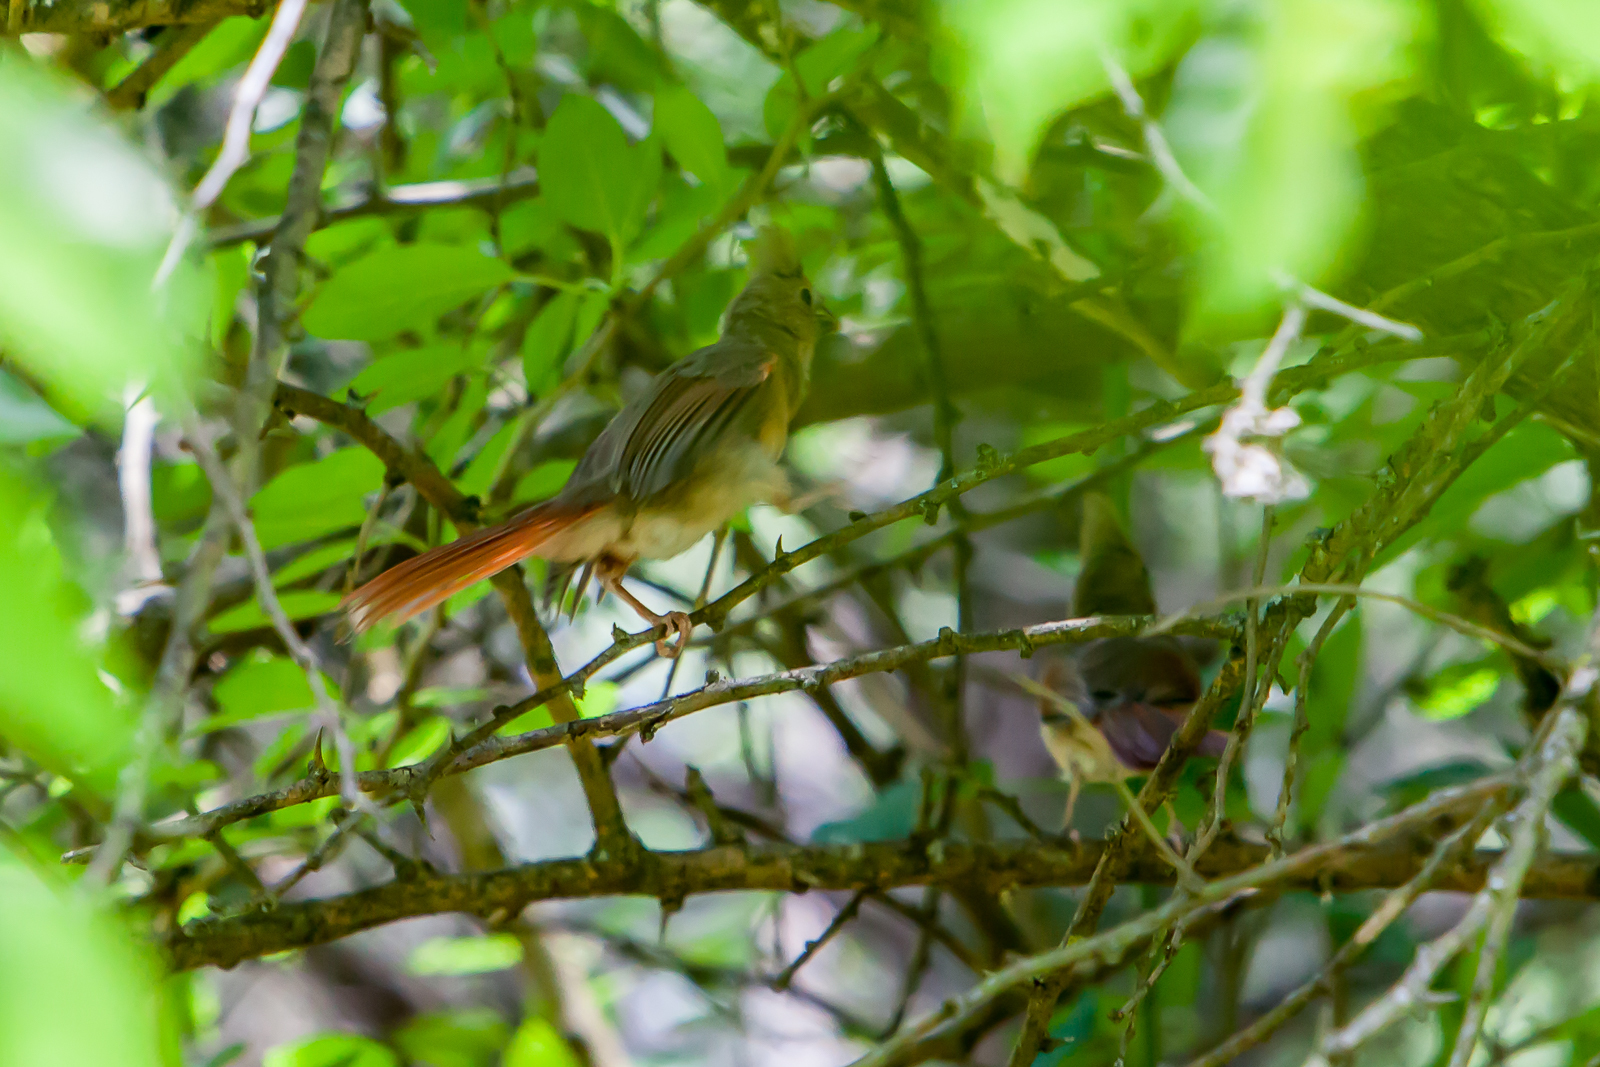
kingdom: Animalia
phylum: Chordata
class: Aves
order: Passeriformes
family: Cardinalidae
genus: Cardinalis
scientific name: Cardinalis cardinalis
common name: Northern cardinal
